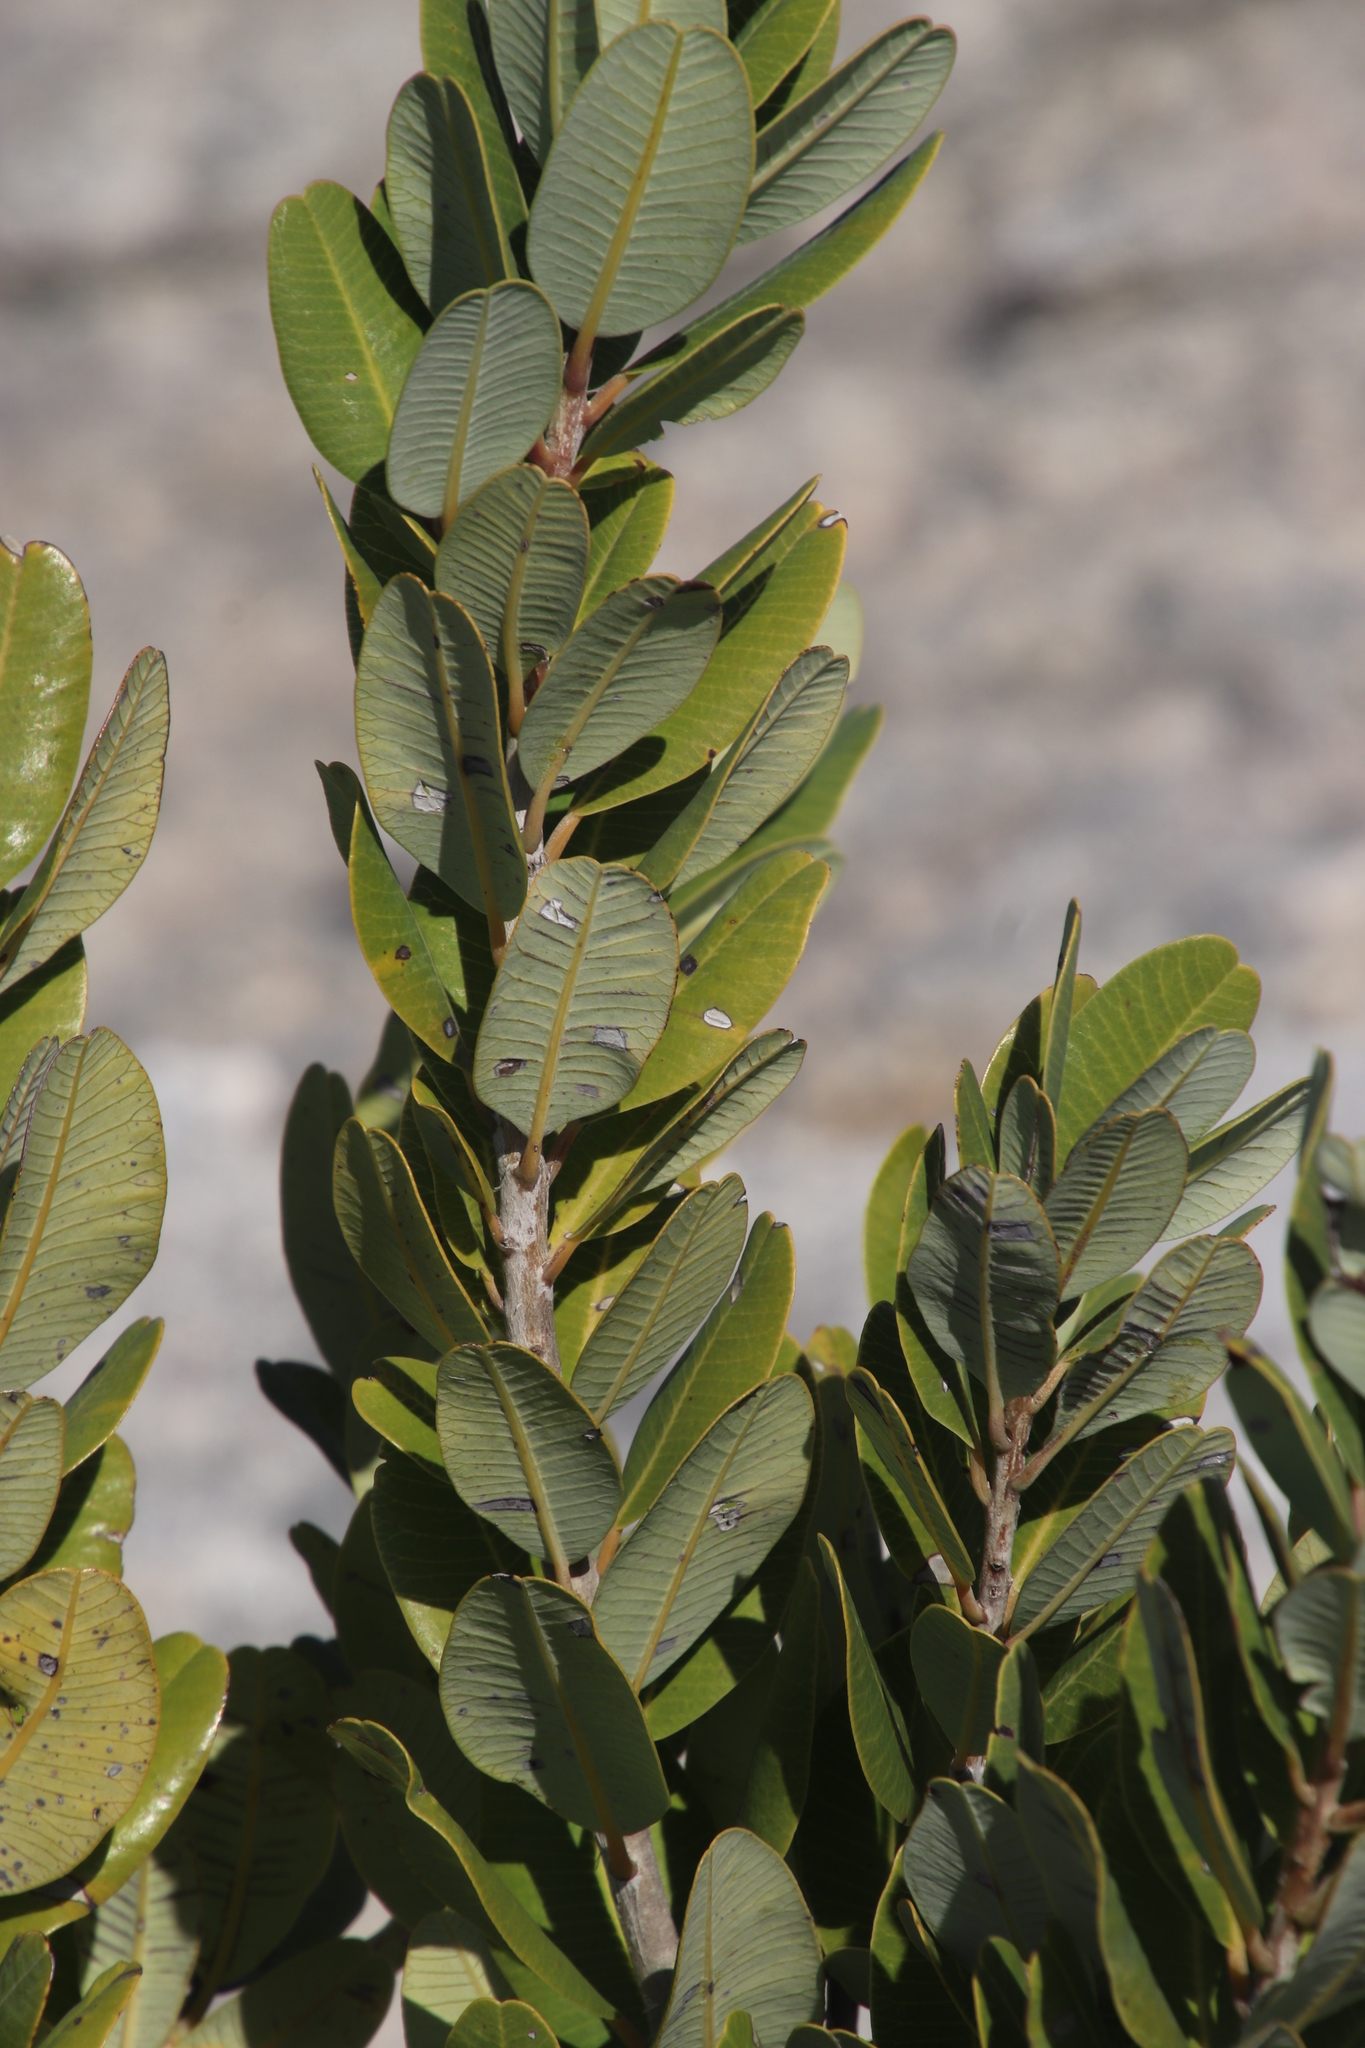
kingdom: Plantae
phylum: Tracheophyta
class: Magnoliopsida
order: Sapindales
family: Anacardiaceae
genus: Heeria
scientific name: Heeria argentea
